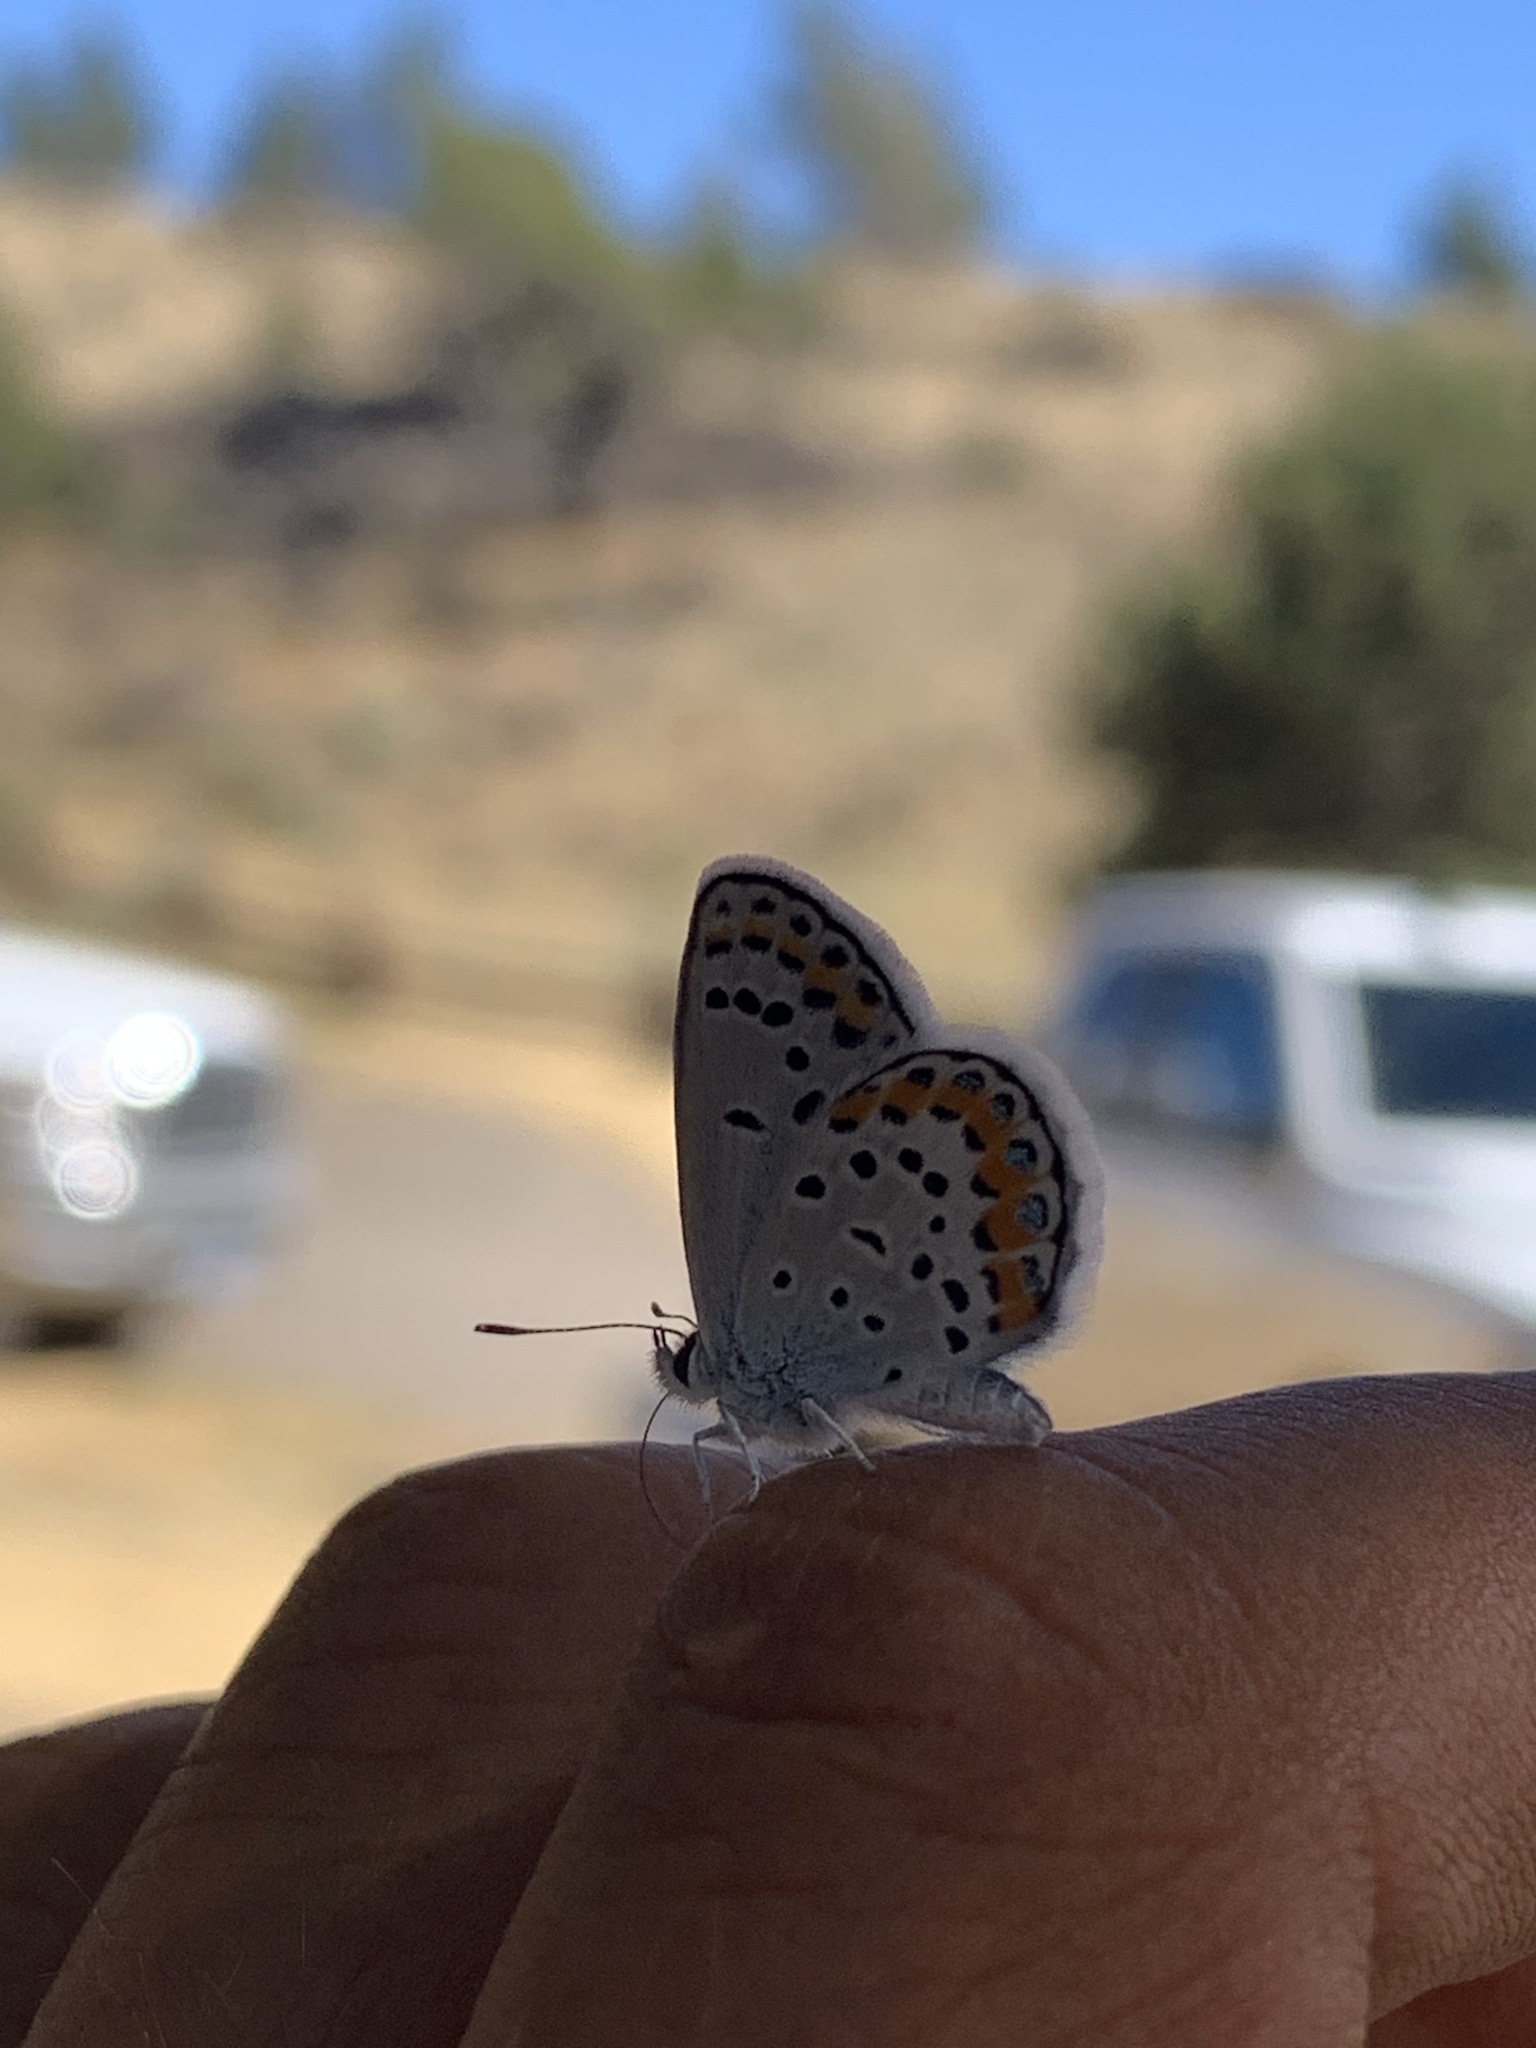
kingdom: Animalia
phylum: Arthropoda
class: Insecta
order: Lepidoptera
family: Lycaenidae
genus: Lycaeides
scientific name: Lycaeides melissa
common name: Melissa blue
